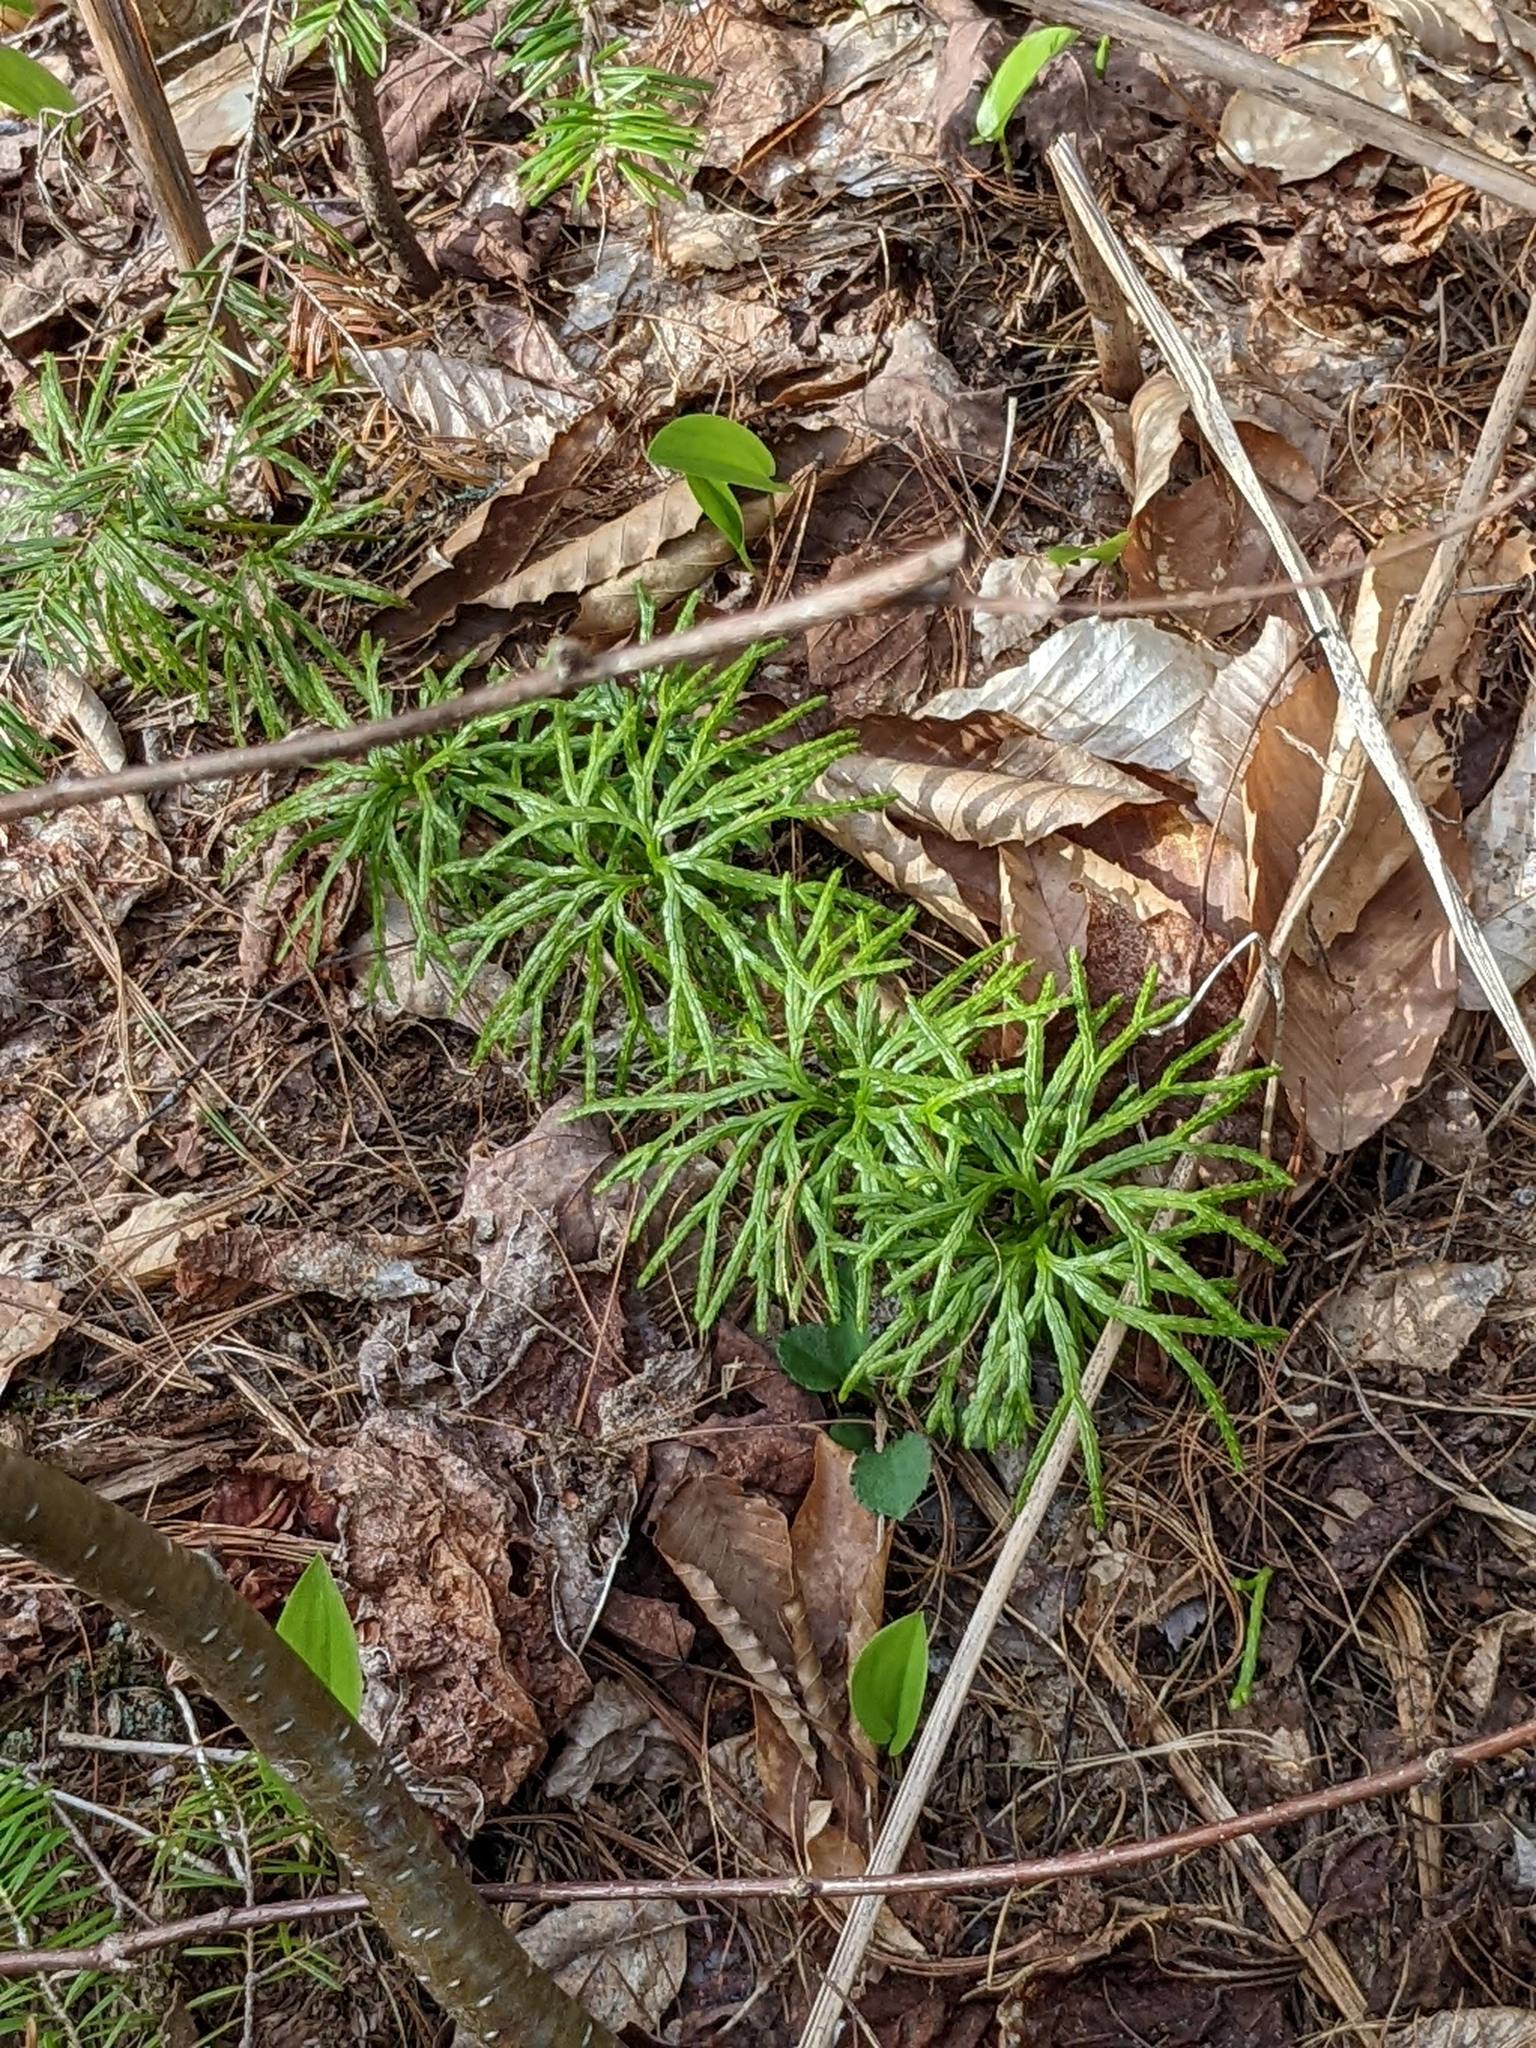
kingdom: Plantae
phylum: Tracheophyta
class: Lycopodiopsida
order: Lycopodiales
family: Lycopodiaceae
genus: Diphasiastrum
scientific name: Diphasiastrum digitatum
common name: Southern running-pine
